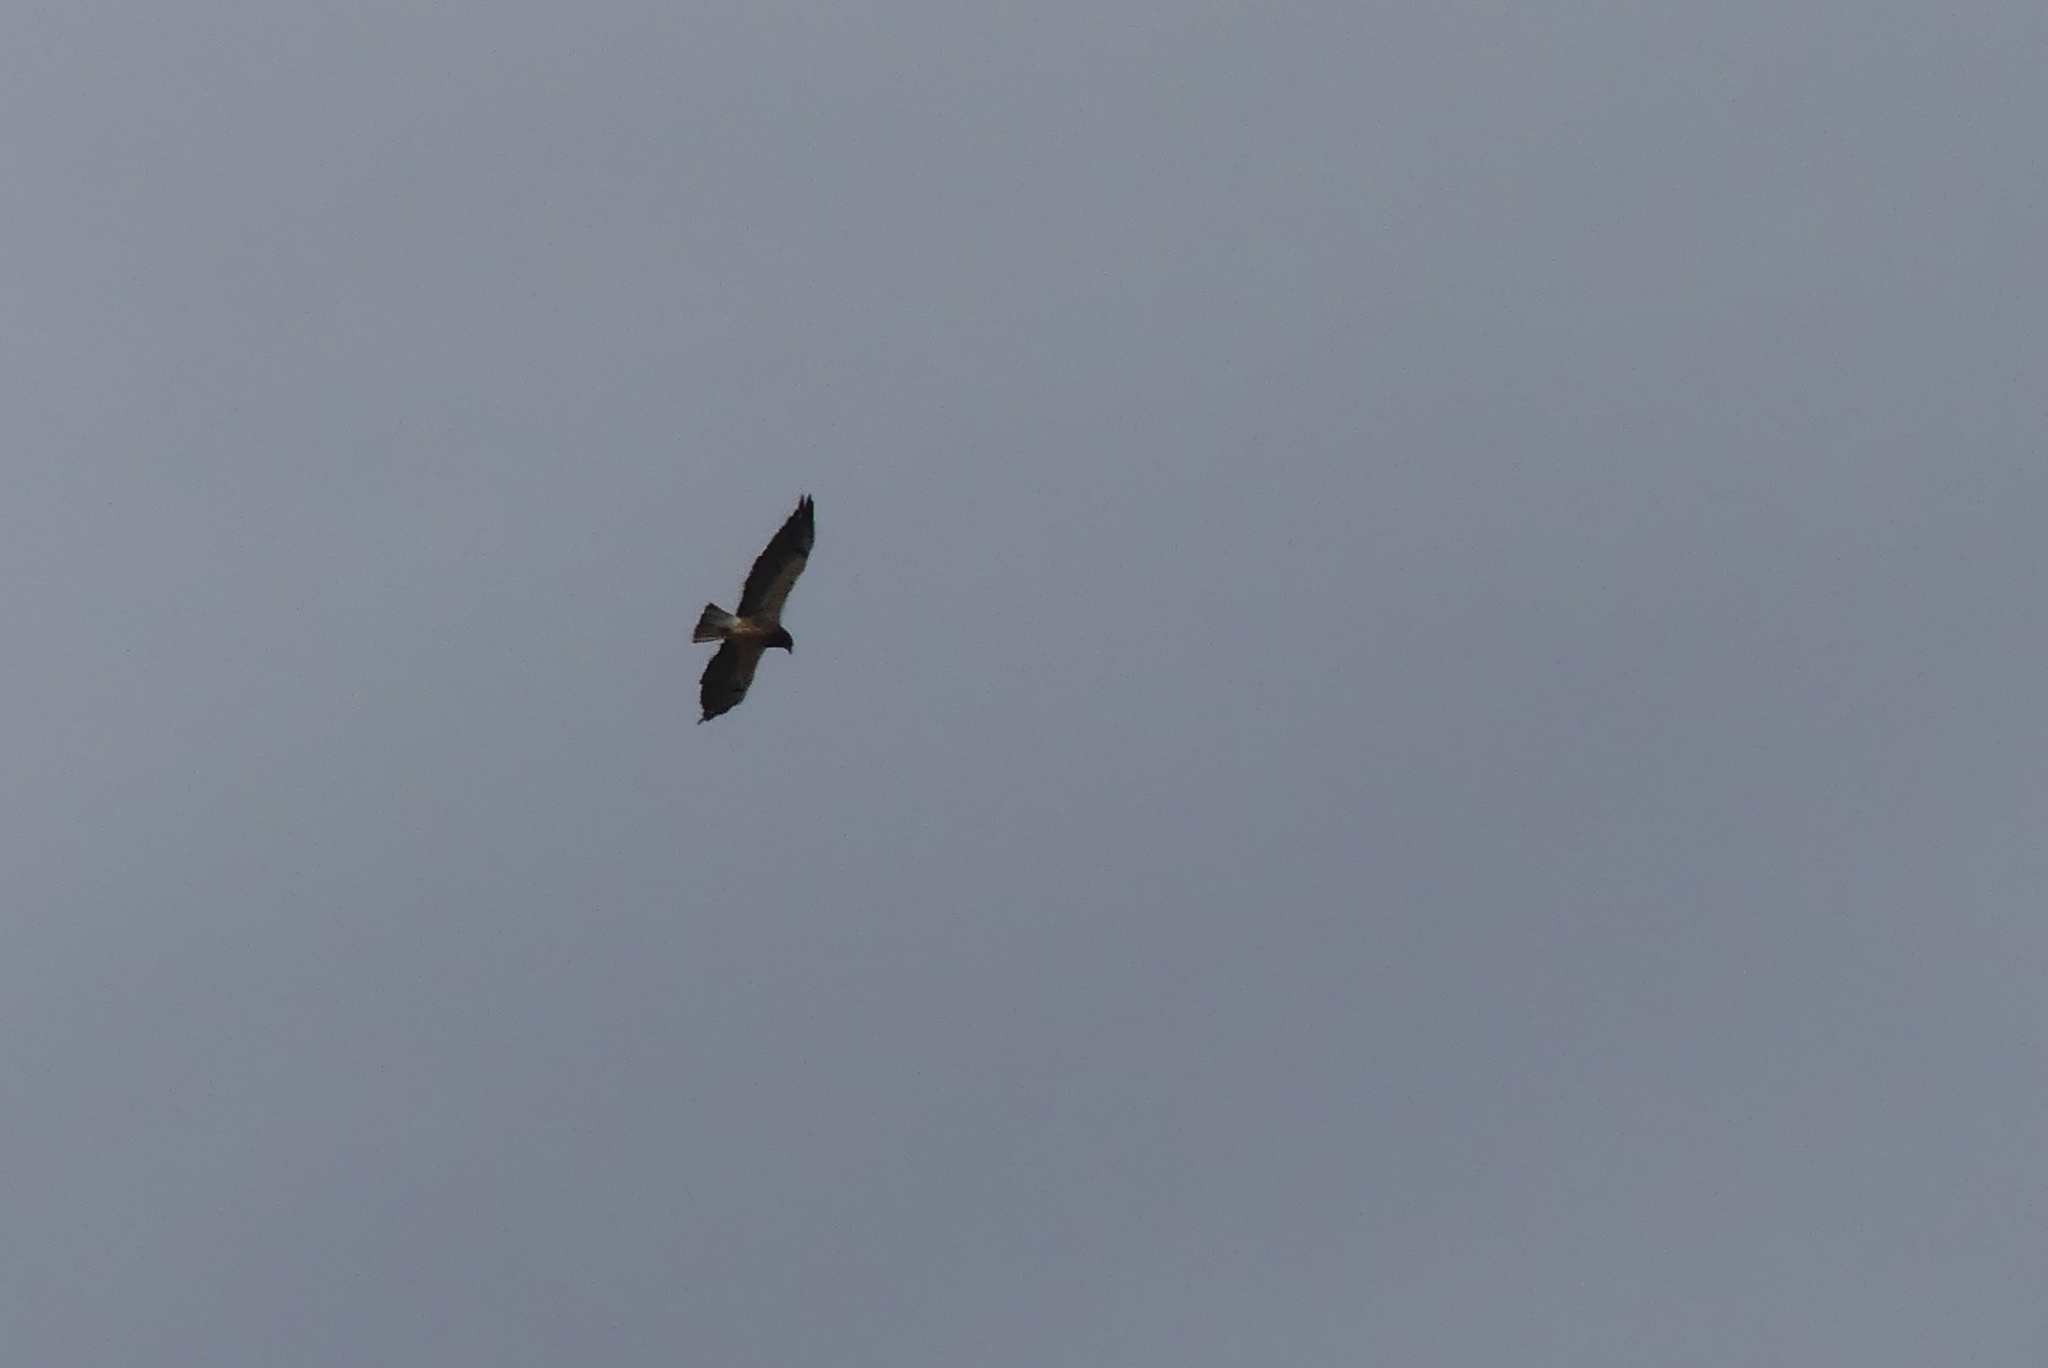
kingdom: Animalia
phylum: Chordata
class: Aves
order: Accipitriformes
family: Accipitridae
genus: Buteo
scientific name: Buteo swainsoni
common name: Swainson's hawk
